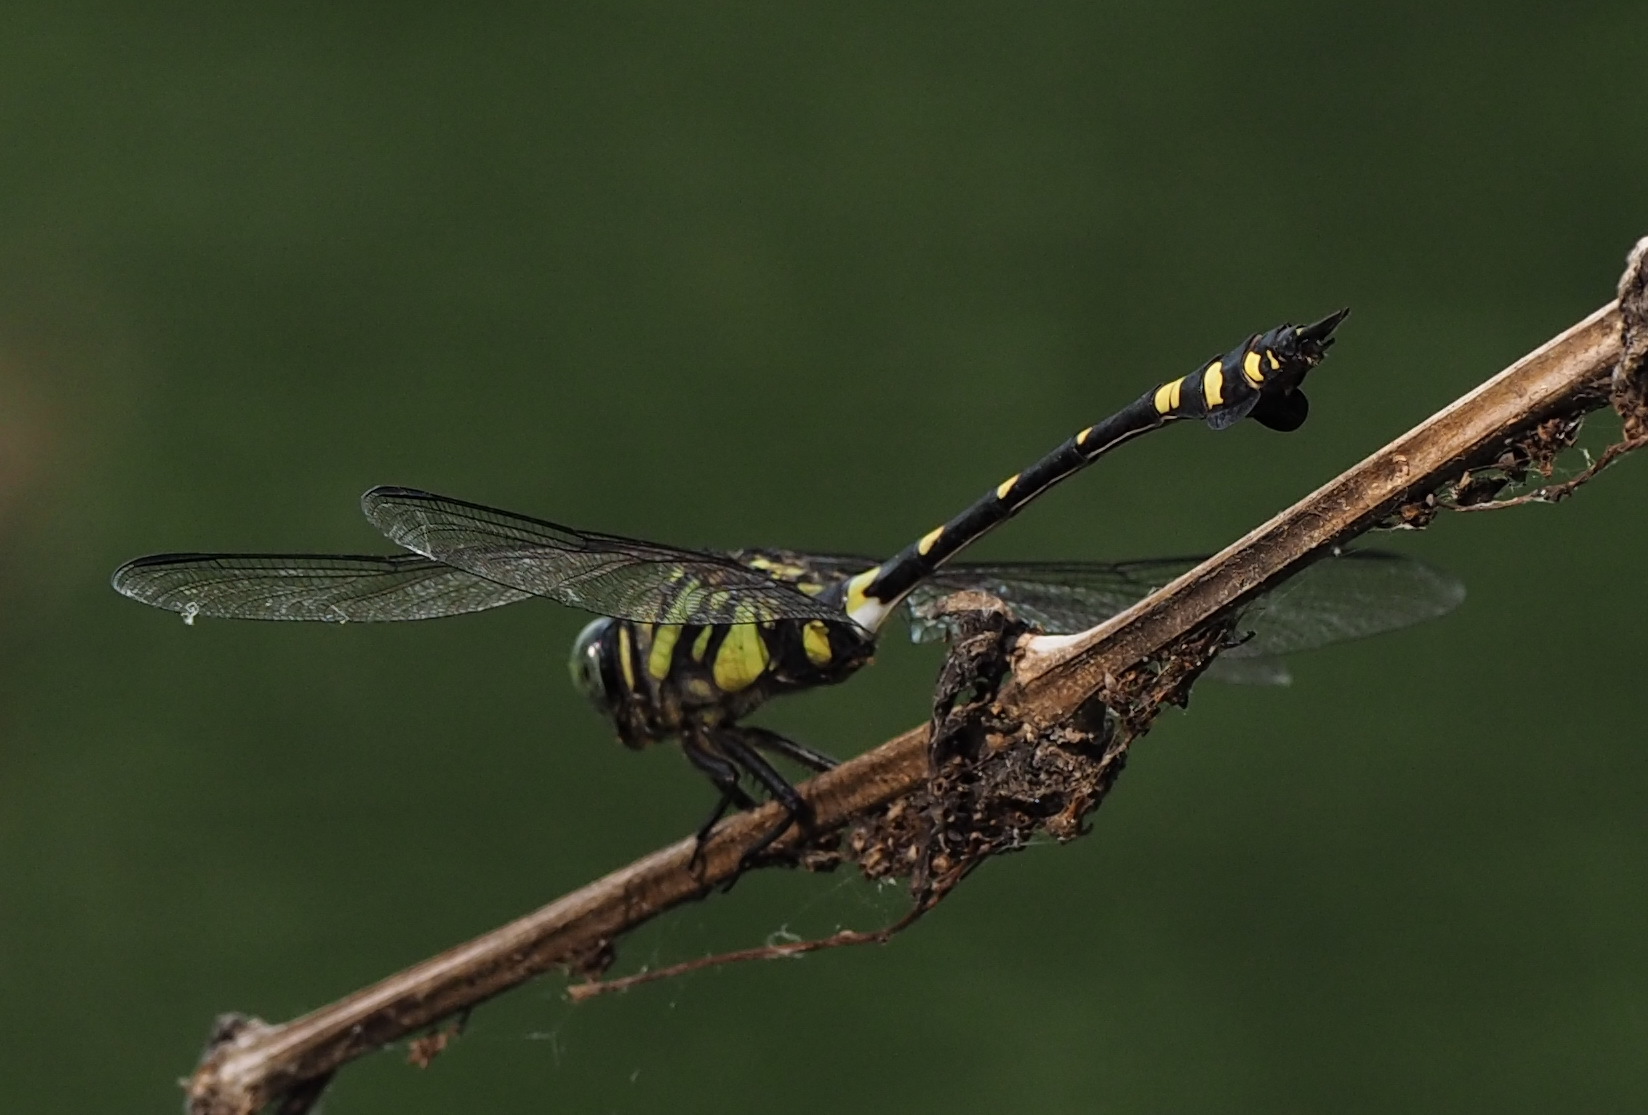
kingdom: Animalia
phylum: Arthropoda
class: Insecta
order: Odonata
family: Gomphidae
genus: Ictinogomphus
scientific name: Ictinogomphus rapax
